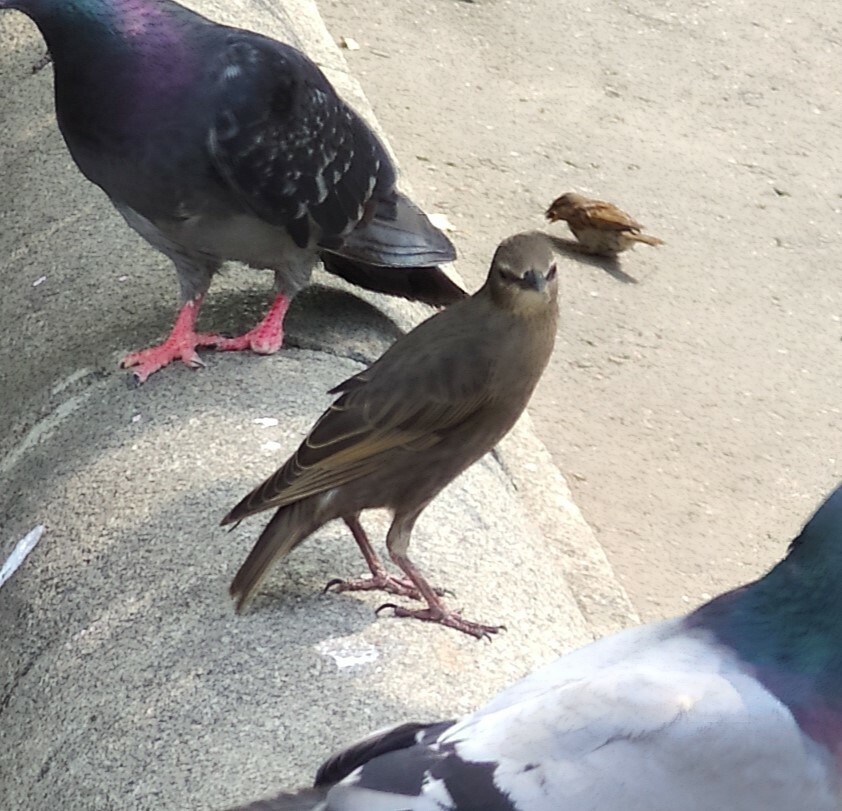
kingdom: Animalia
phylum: Chordata
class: Aves
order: Passeriformes
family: Sturnidae
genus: Sturnus
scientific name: Sturnus vulgaris
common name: Common starling
